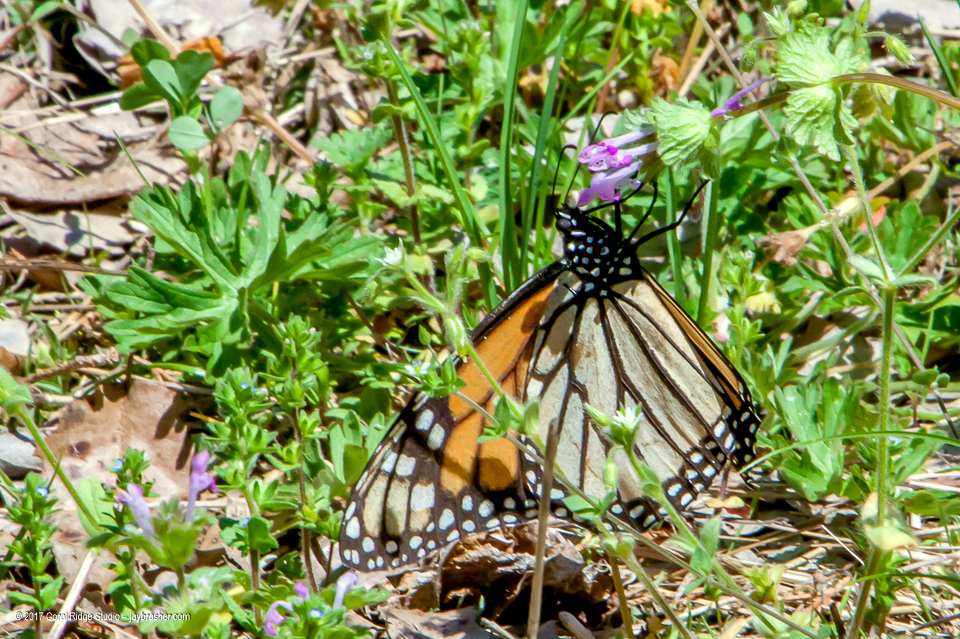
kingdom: Animalia
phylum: Arthropoda
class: Insecta
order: Lepidoptera
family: Nymphalidae
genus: Danaus
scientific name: Danaus plexippus
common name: Monarch
